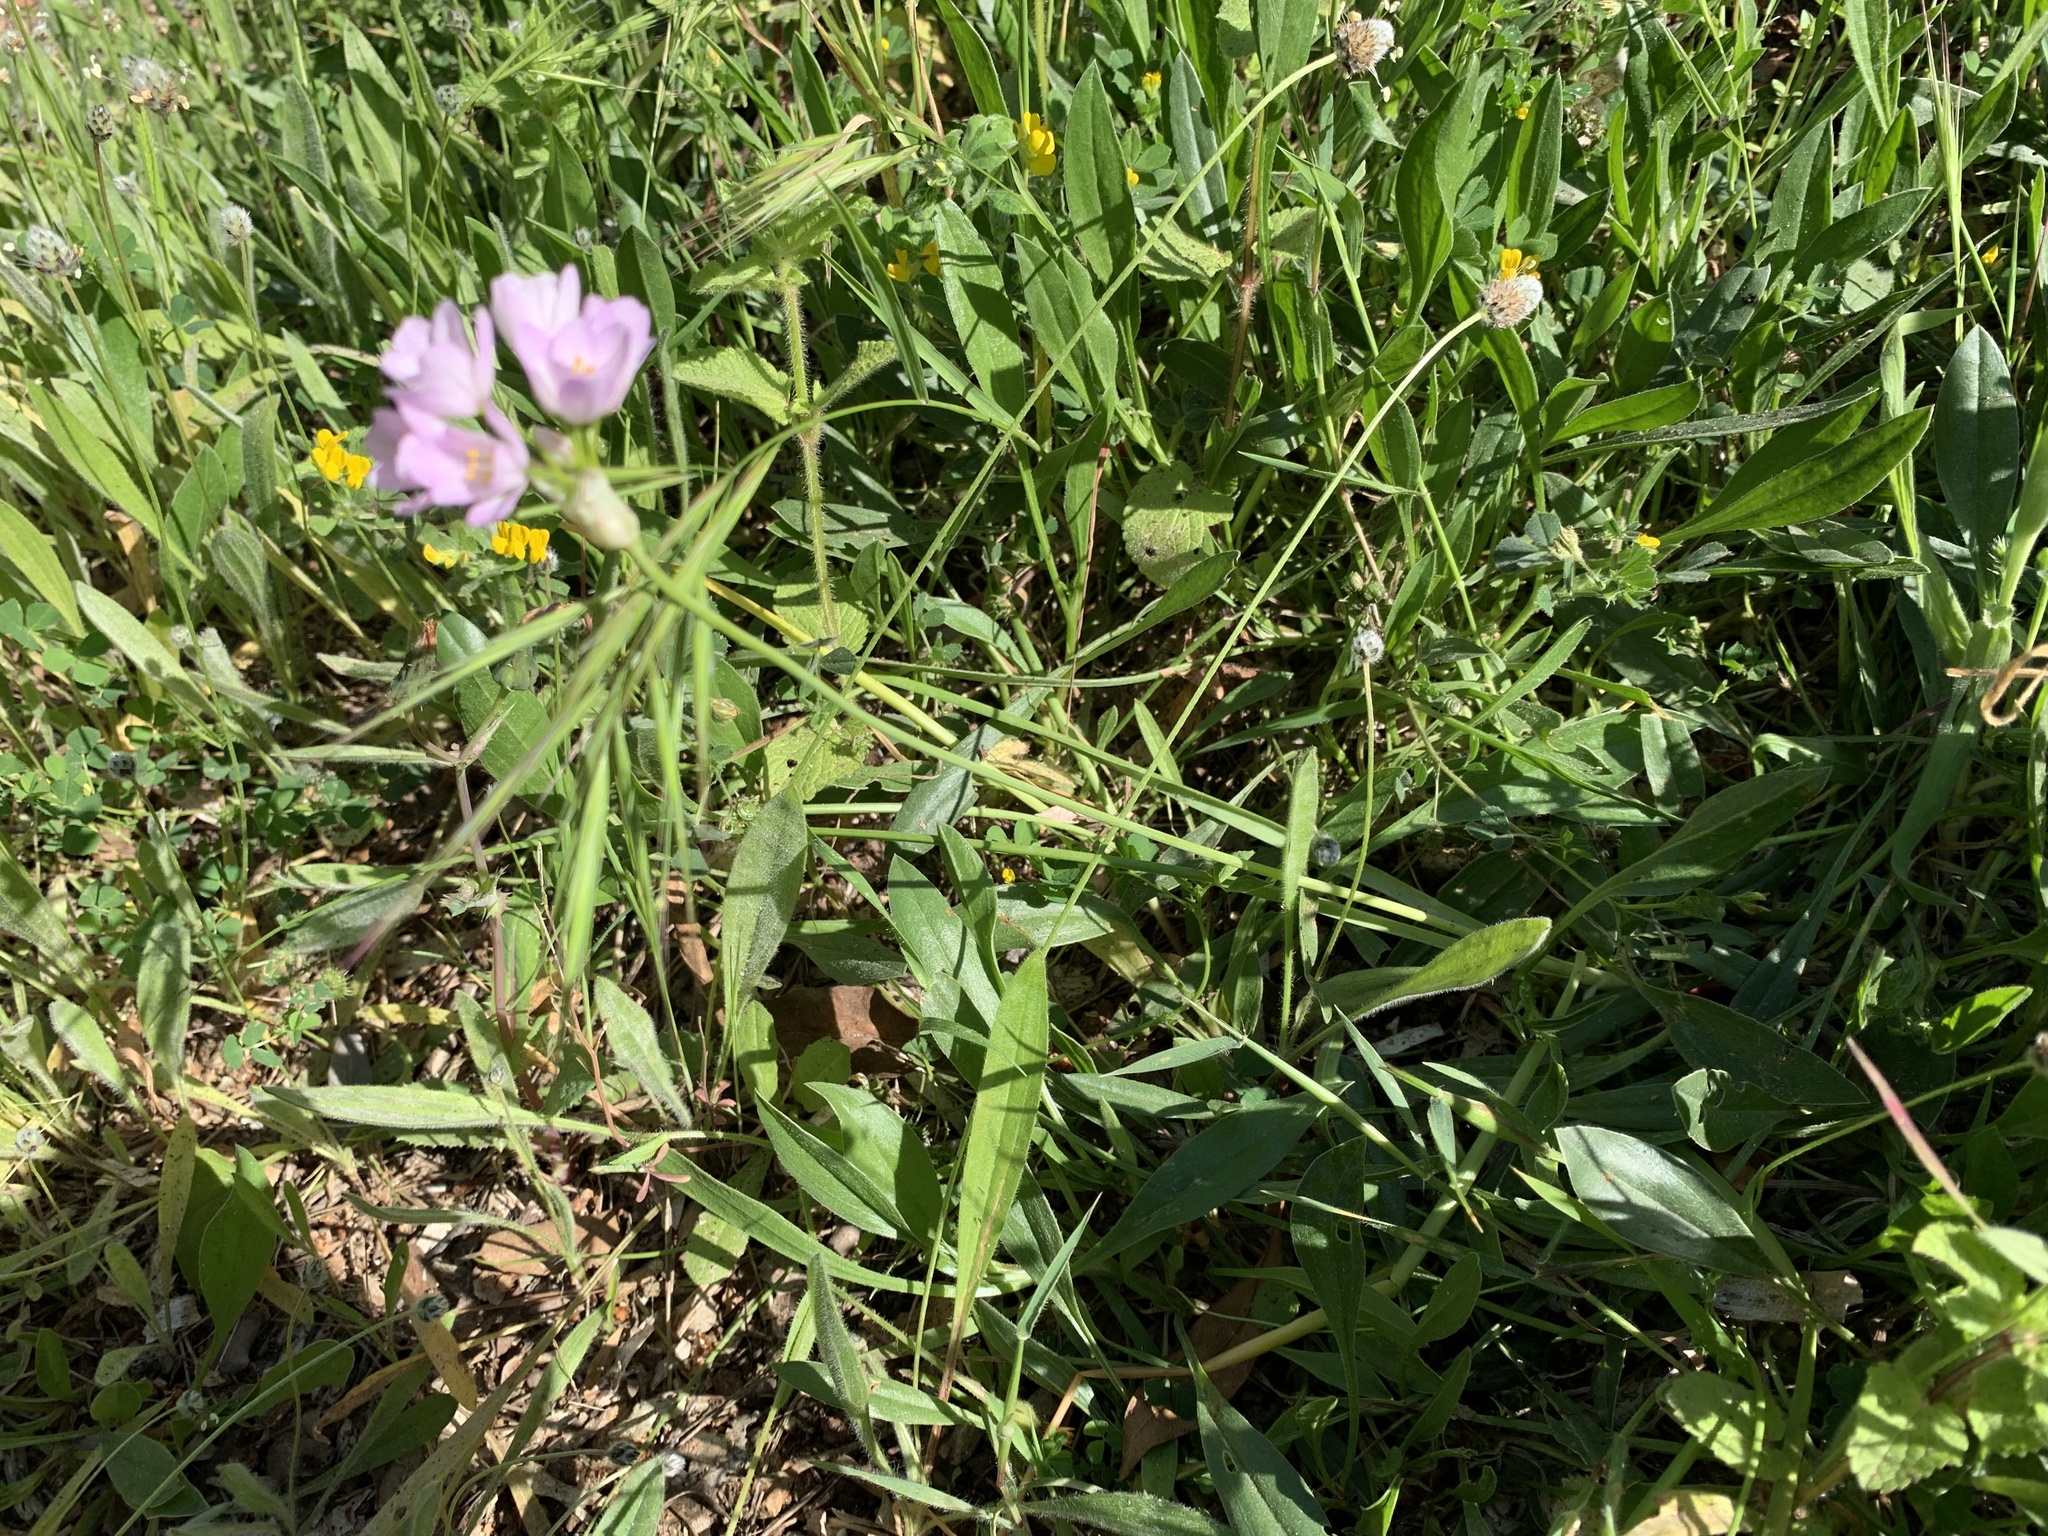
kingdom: Plantae
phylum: Tracheophyta
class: Liliopsida
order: Asparagales
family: Amaryllidaceae
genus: Allium
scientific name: Allium roseum
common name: Rosy garlic
